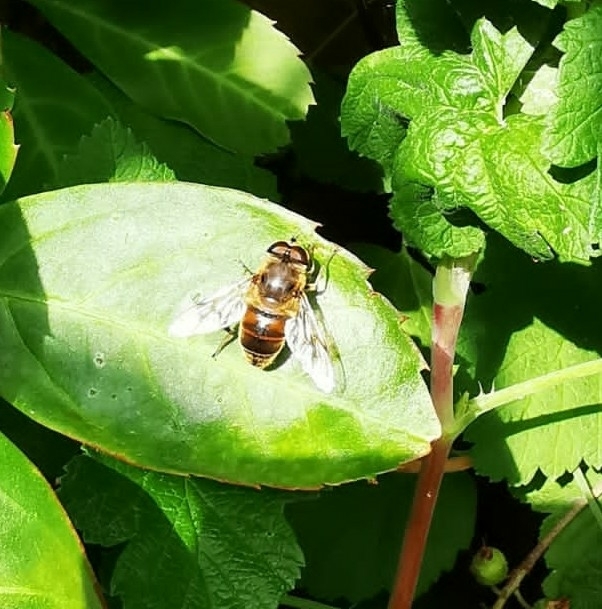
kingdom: Animalia
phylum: Arthropoda
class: Insecta
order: Diptera
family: Syrphidae
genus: Eristalis
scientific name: Eristalis tenax
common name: Drone fly
